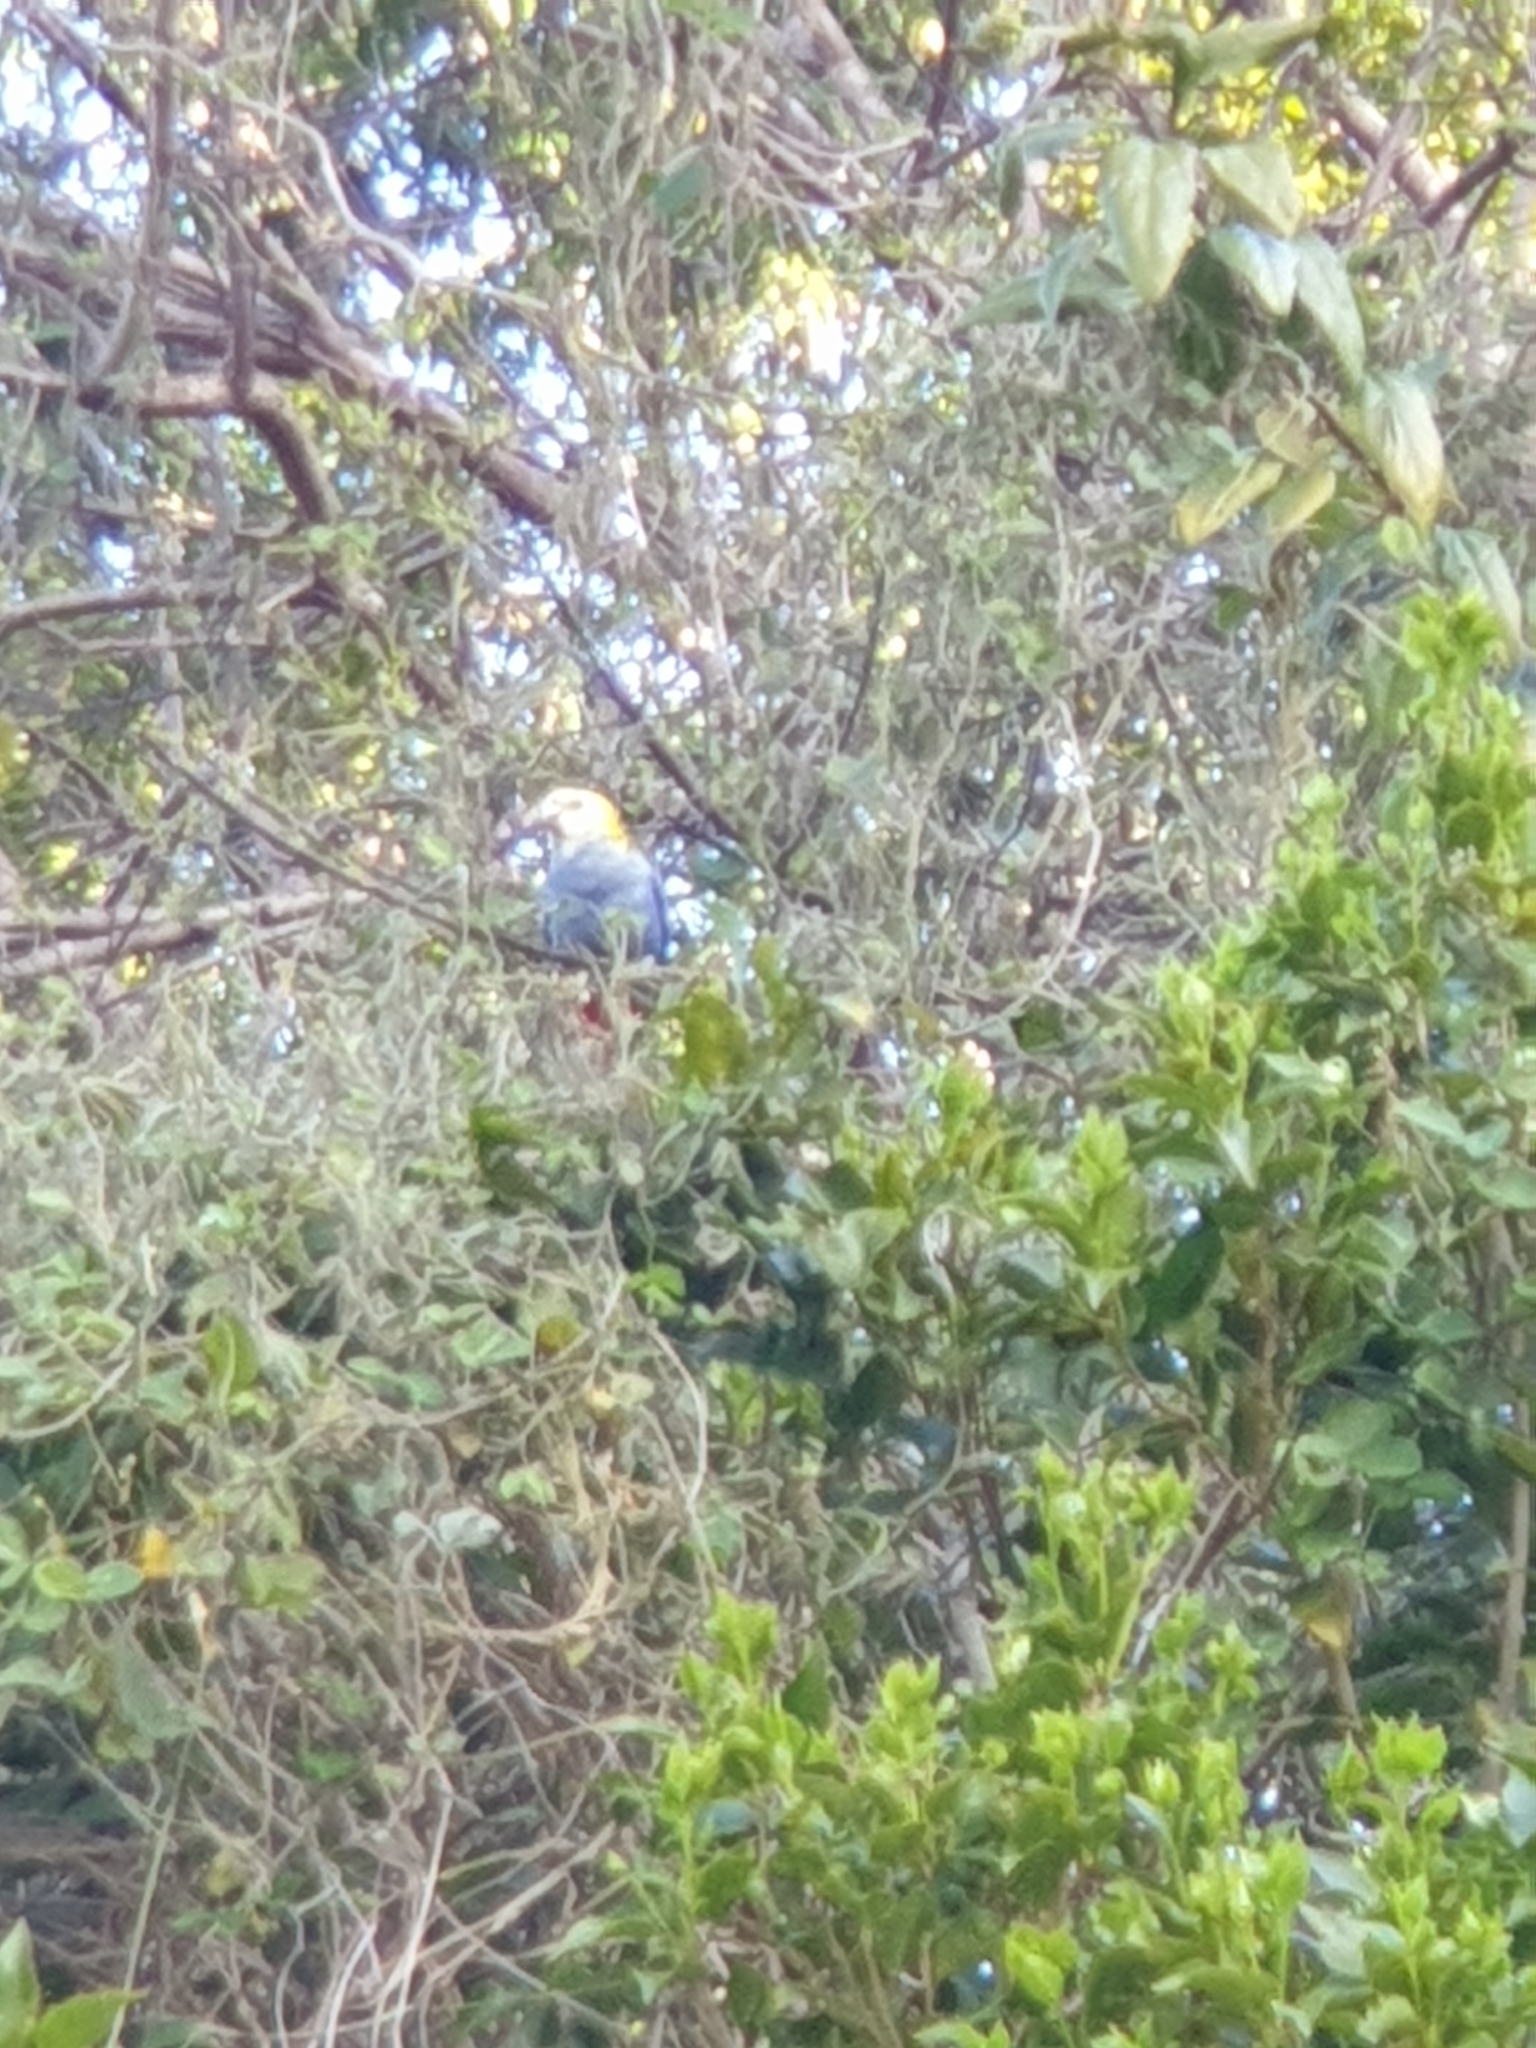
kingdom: Animalia
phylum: Chordata
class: Aves
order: Psittaciformes
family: Psittacidae
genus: Platycercus
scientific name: Platycercus adscitus
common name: Pale-headed rosella
